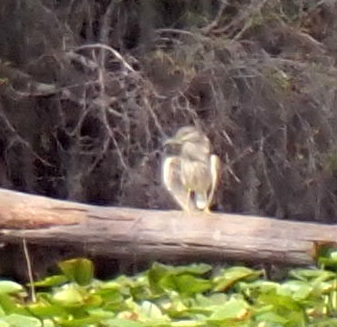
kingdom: Animalia
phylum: Chordata
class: Aves
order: Pelecaniformes
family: Ardeidae
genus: Nycticorax
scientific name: Nycticorax nycticorax
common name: Black-crowned night heron
